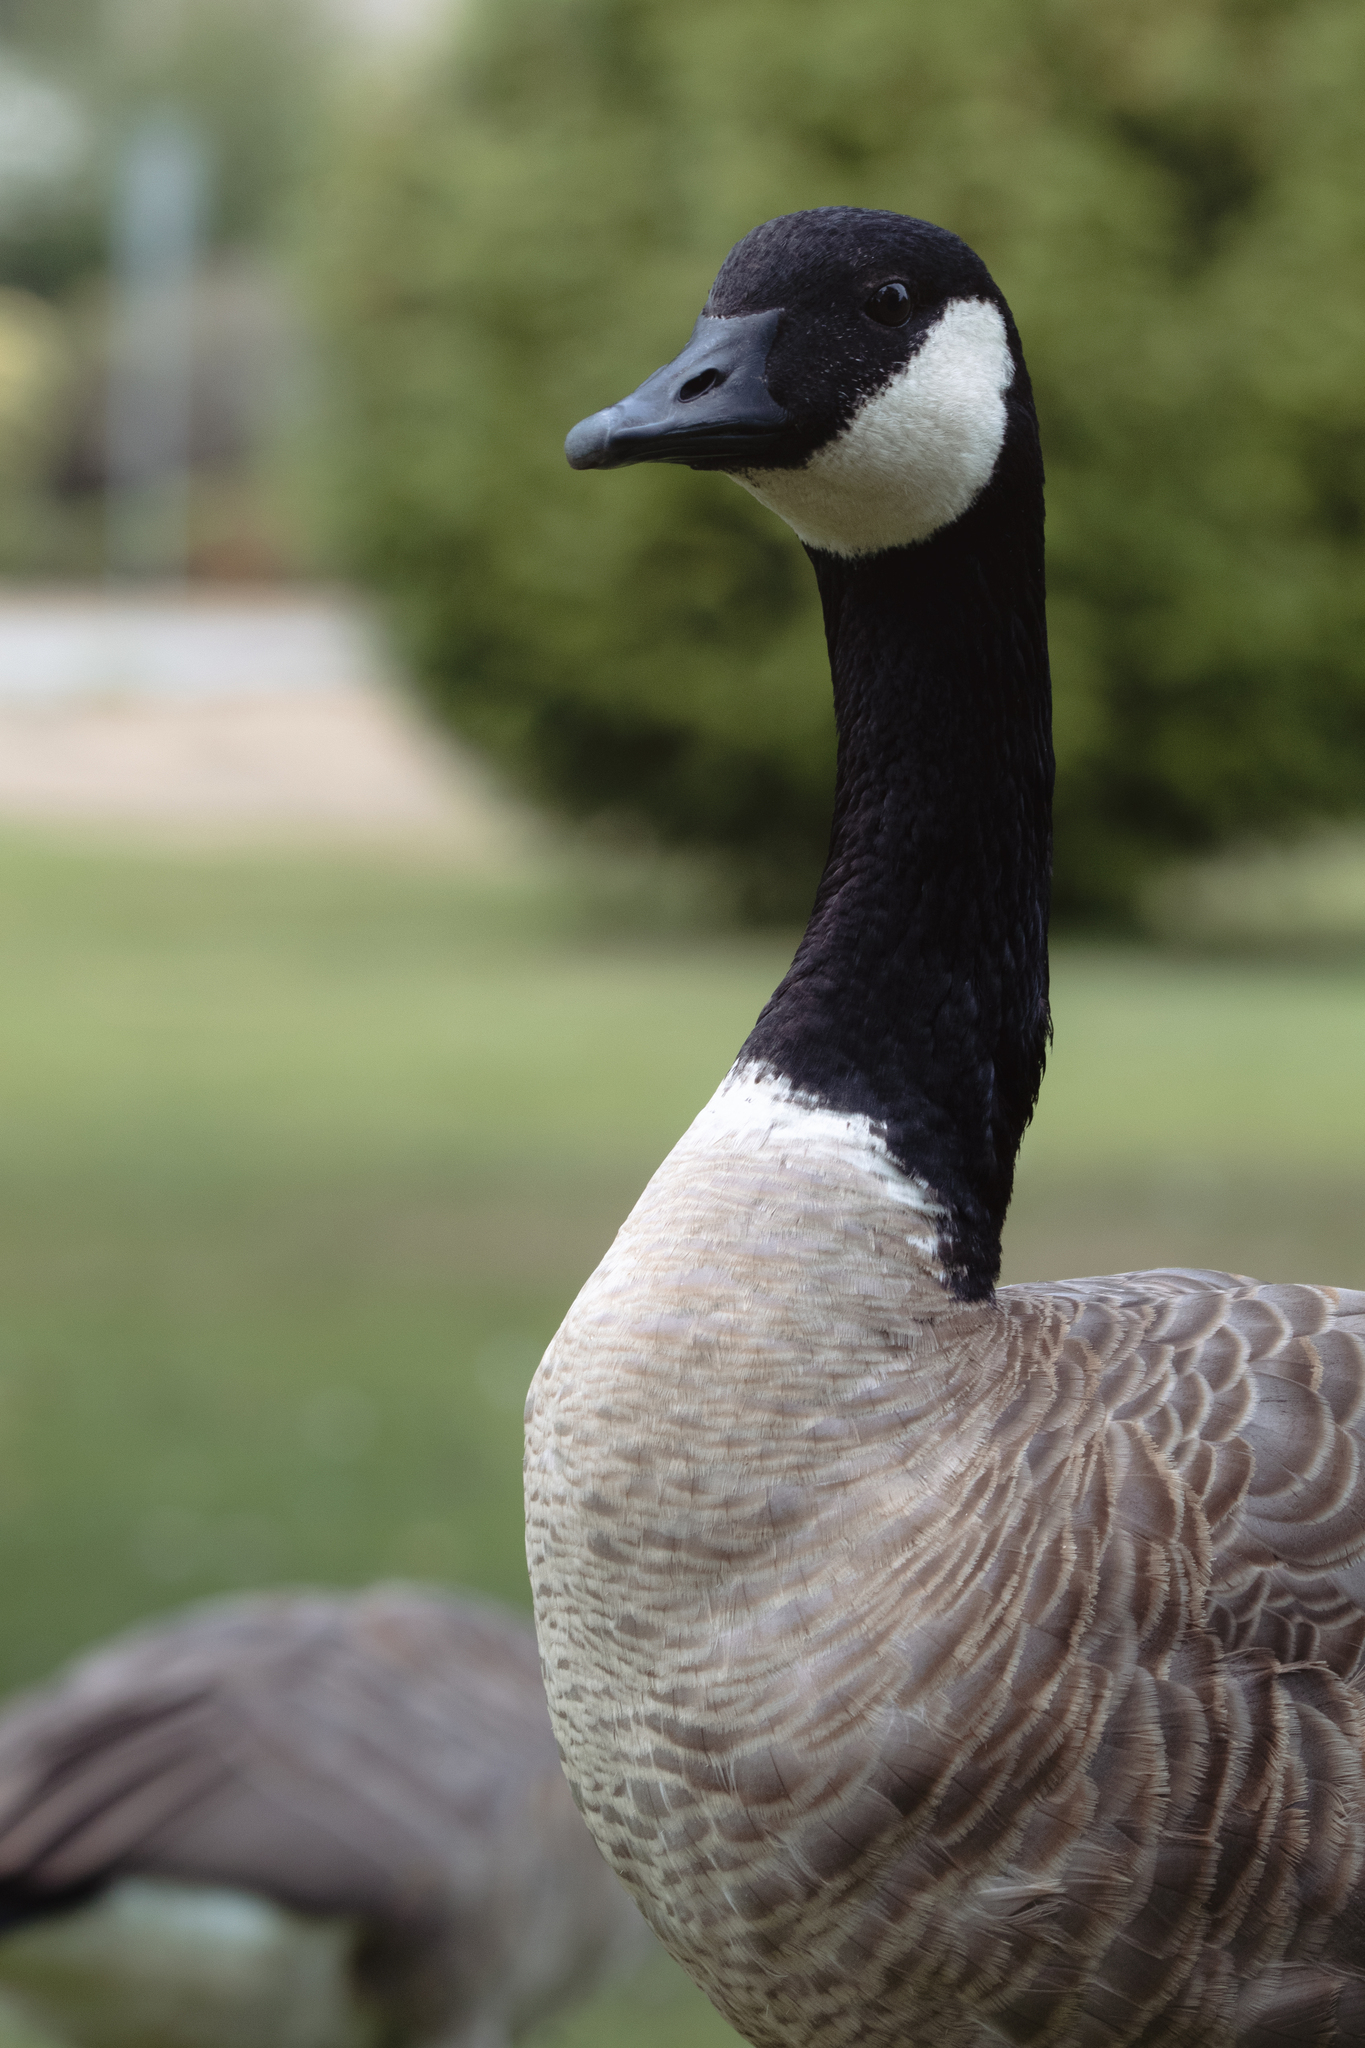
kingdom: Animalia
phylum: Chordata
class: Aves
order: Anseriformes
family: Anatidae
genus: Branta
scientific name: Branta canadensis
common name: Canada goose
